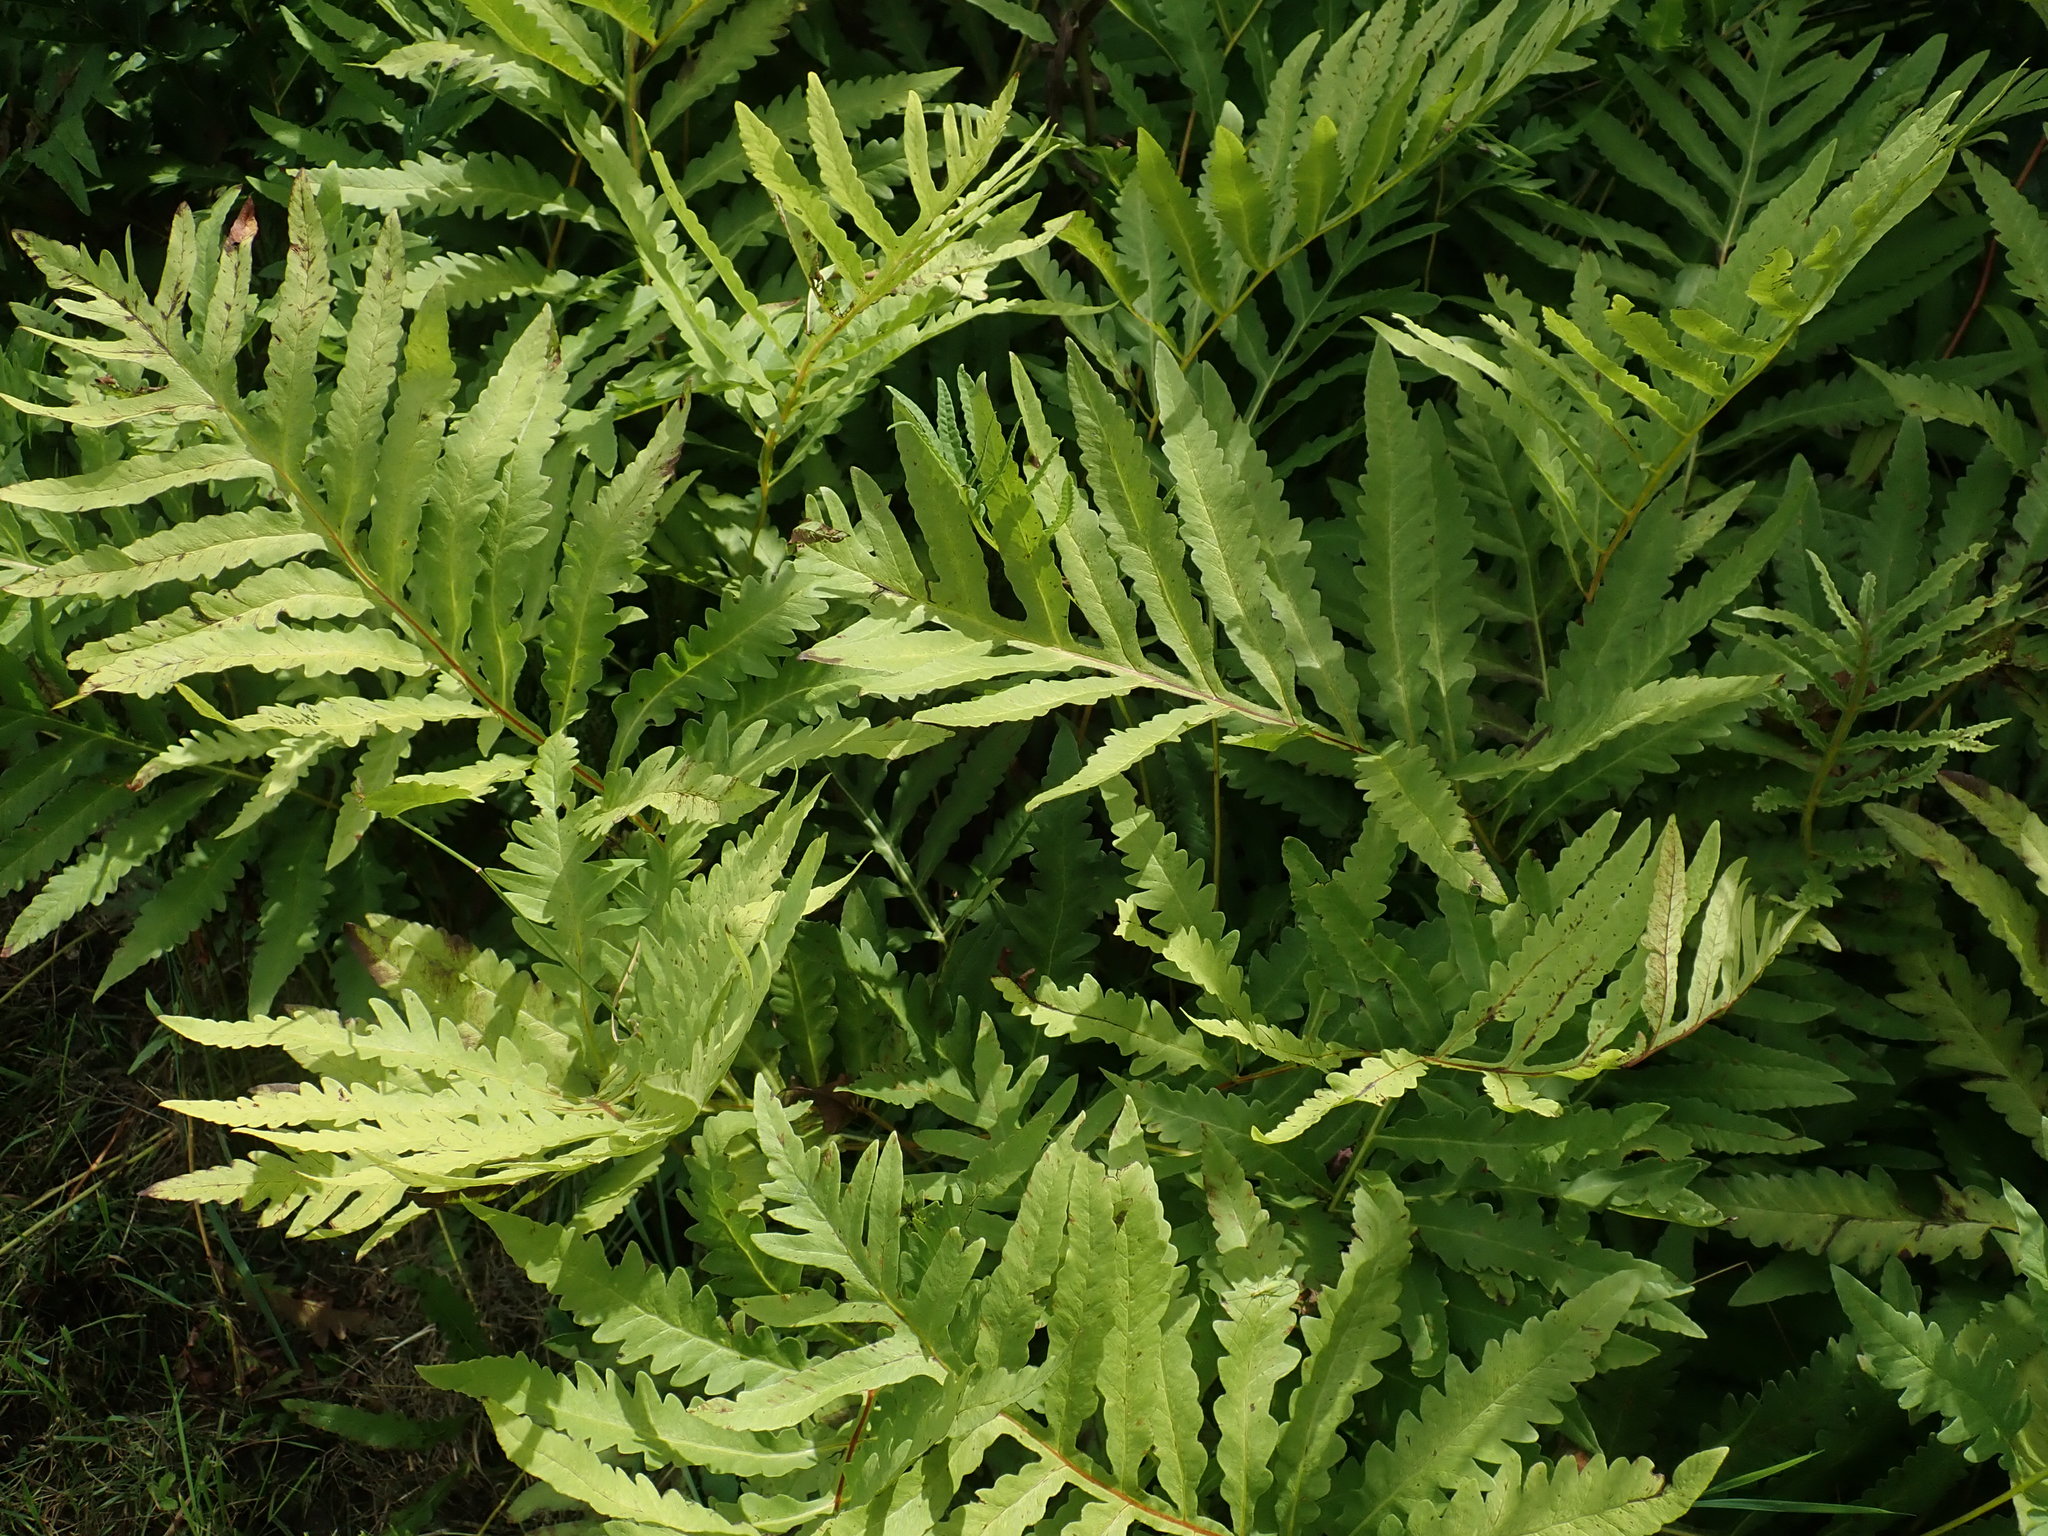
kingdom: Plantae
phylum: Tracheophyta
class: Polypodiopsida
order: Polypodiales
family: Onocleaceae
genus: Onoclea
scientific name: Onoclea sensibilis
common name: Sensitive fern
